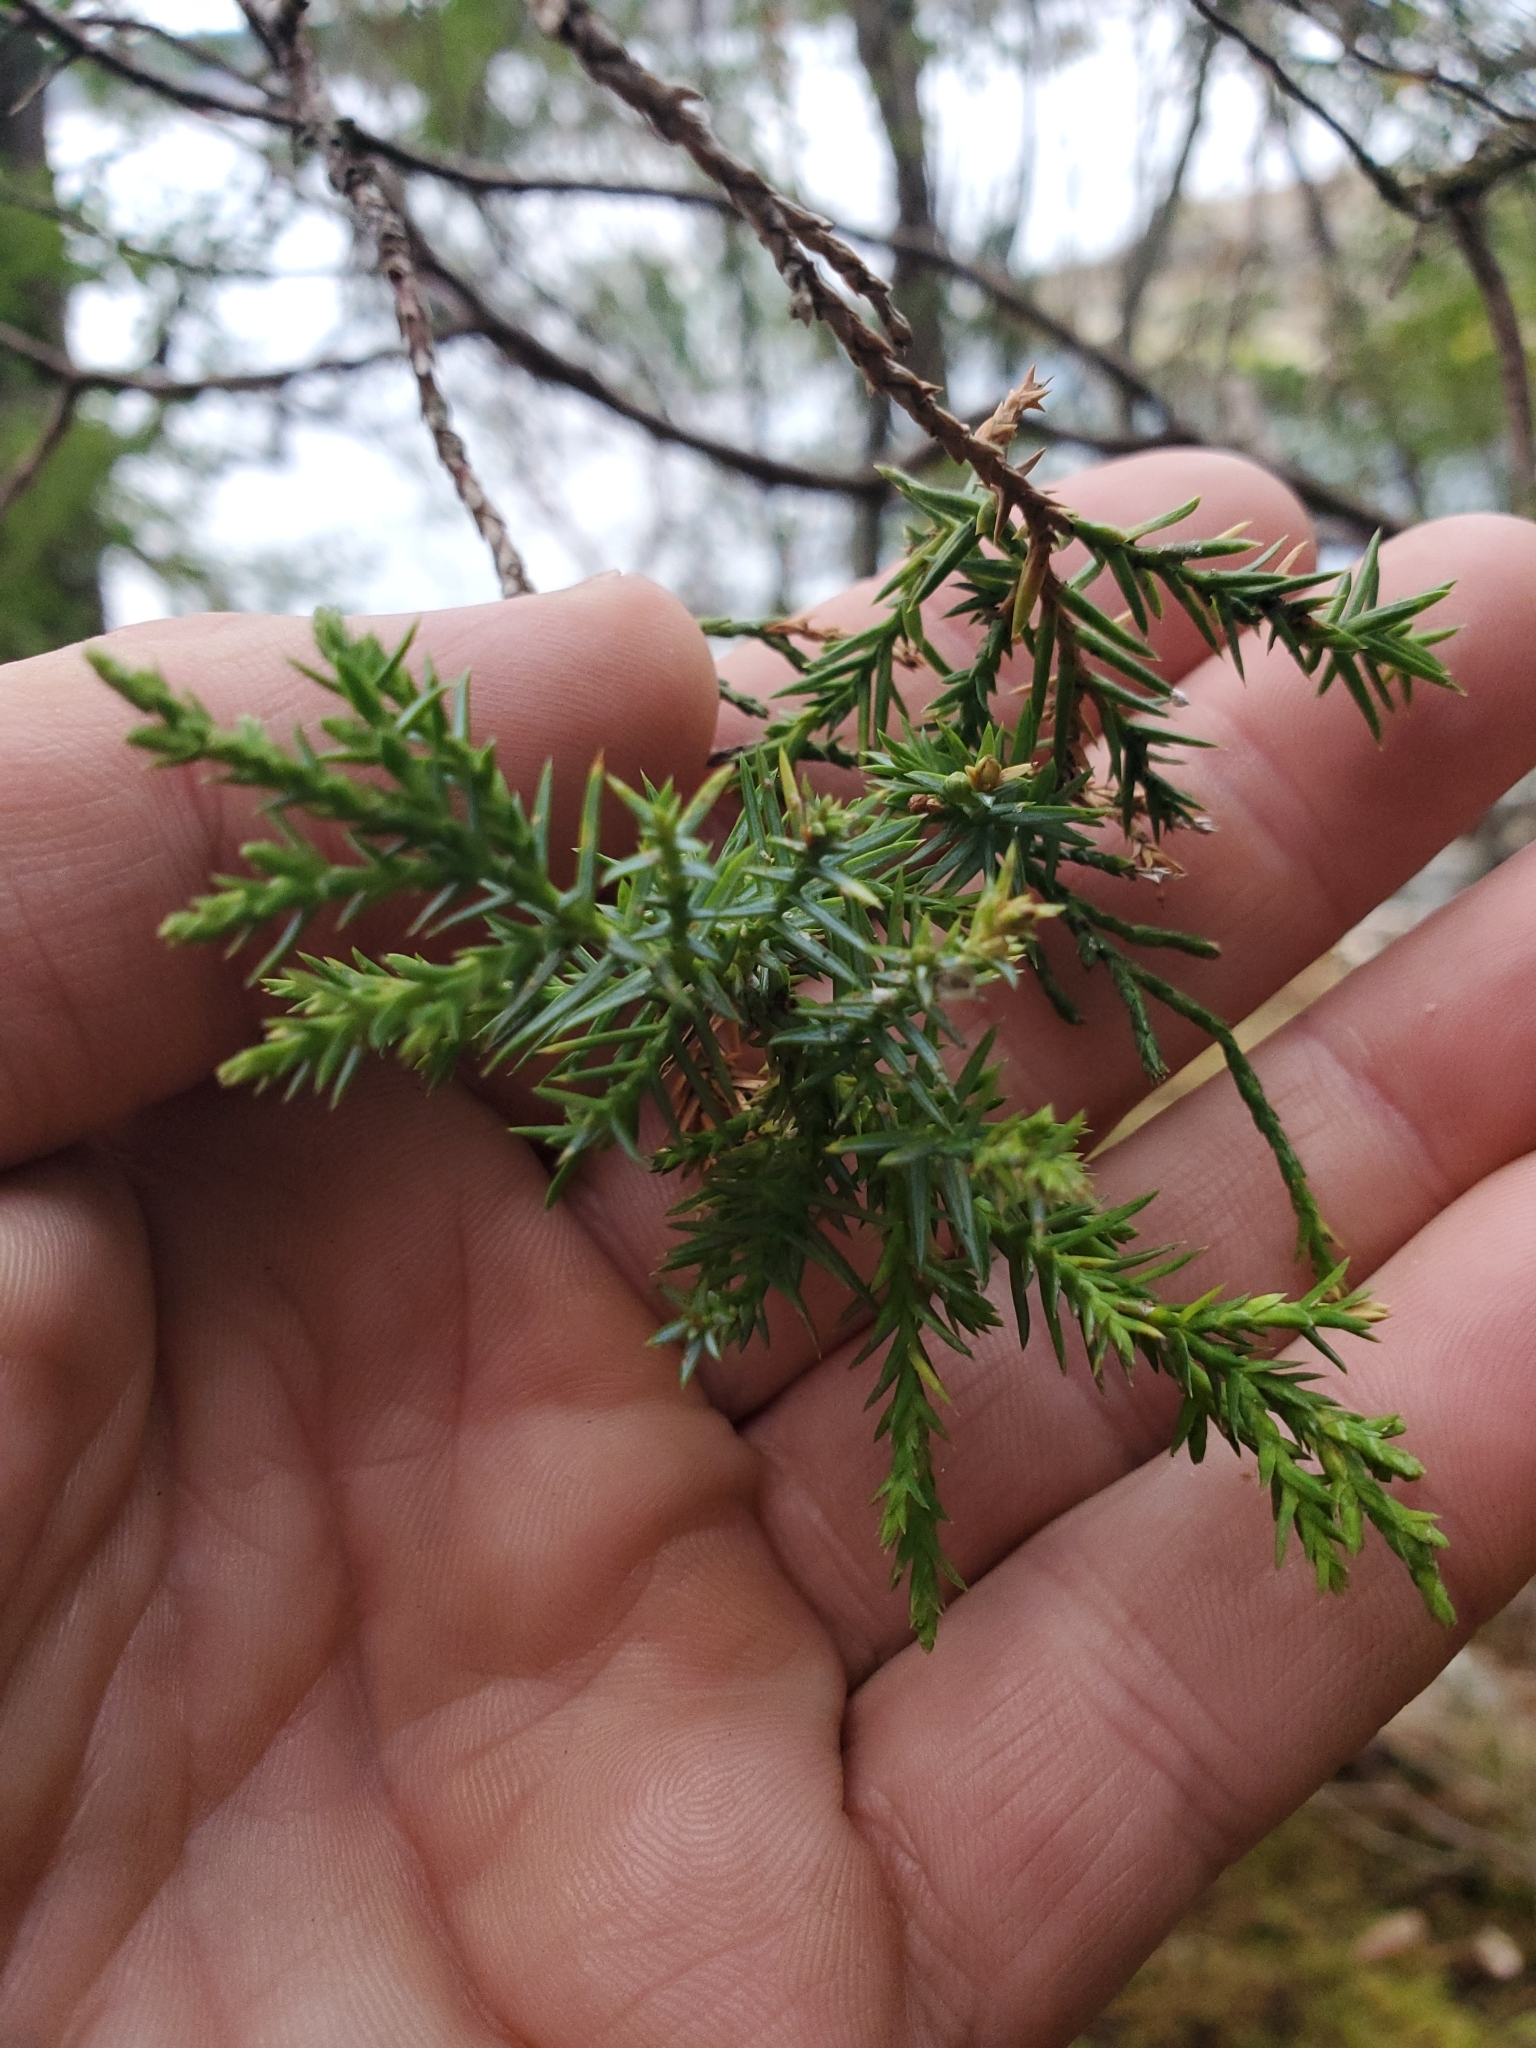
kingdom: Plantae
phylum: Tracheophyta
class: Pinopsida
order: Pinales
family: Cupressaceae
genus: Juniperus
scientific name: Juniperus scopulorum
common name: Rocky mountain juniper
